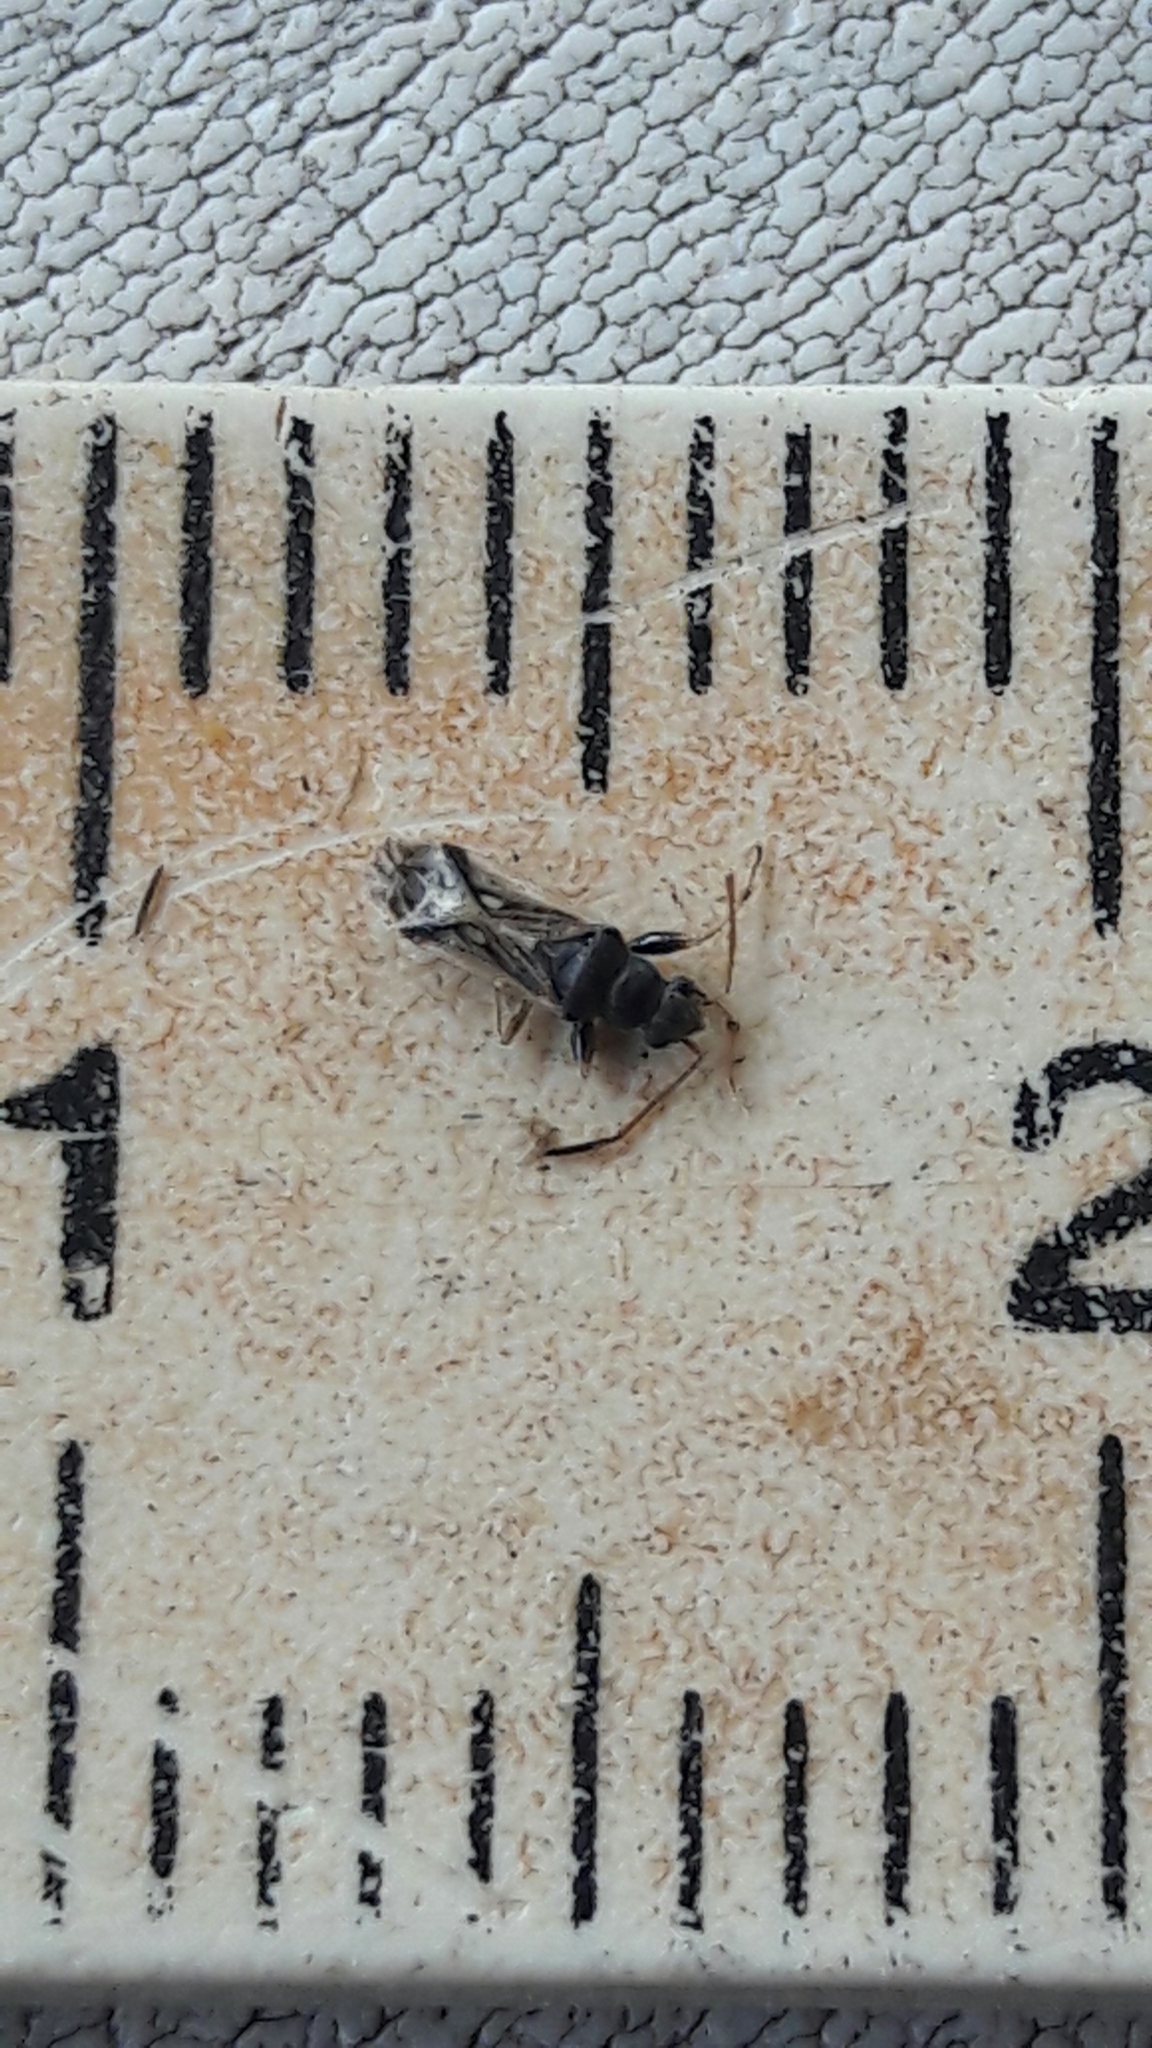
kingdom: Animalia
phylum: Arthropoda
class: Insecta
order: Hemiptera
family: Rhyparochromidae
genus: Pseudopachybrachius
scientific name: Pseudopachybrachius vinctus
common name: Dirt-colored seed bug
